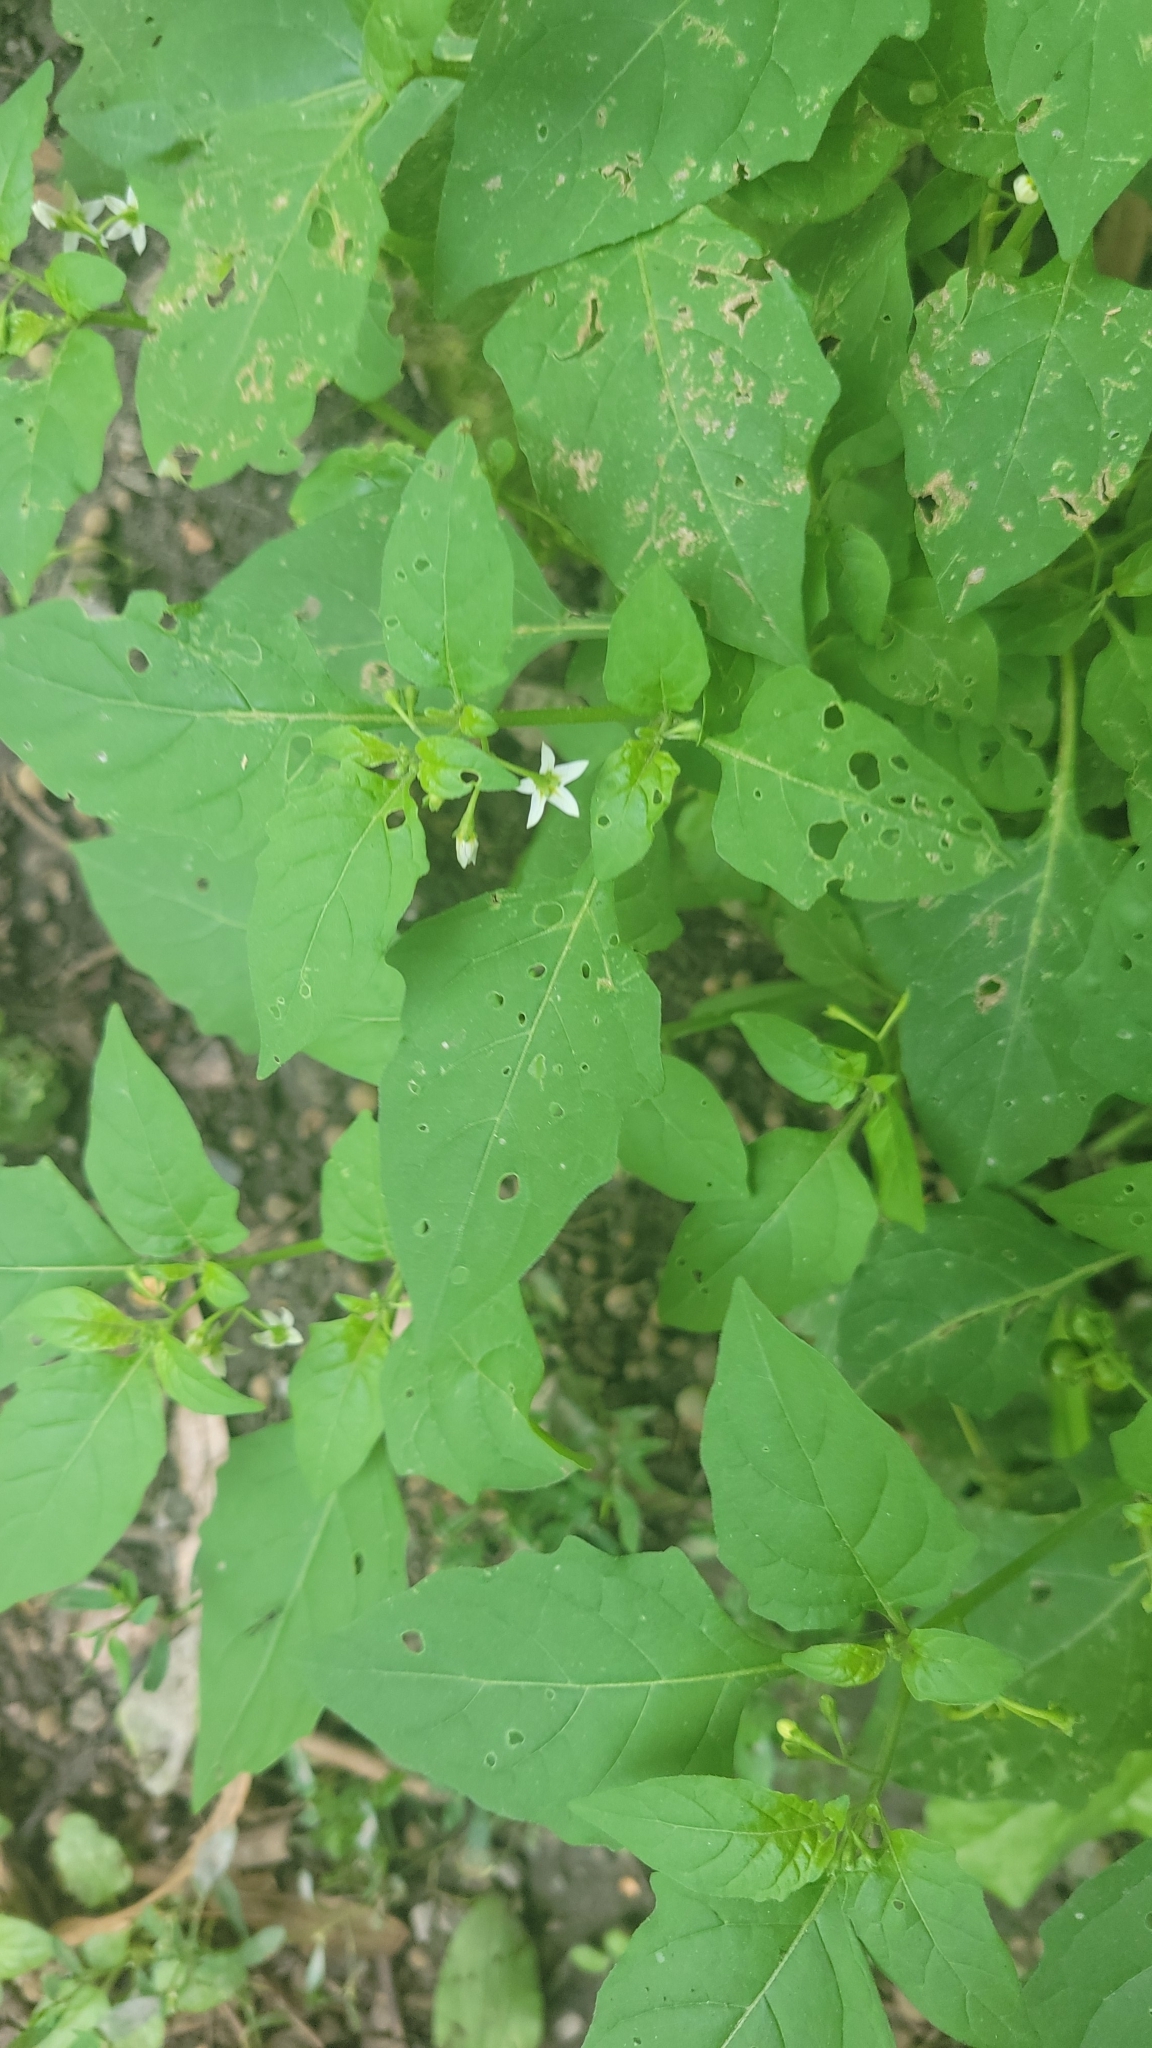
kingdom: Plantae
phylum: Tracheophyta
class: Magnoliopsida
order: Solanales
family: Solanaceae
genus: Solanum
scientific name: Solanum emulans
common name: Eastern black nightshade
